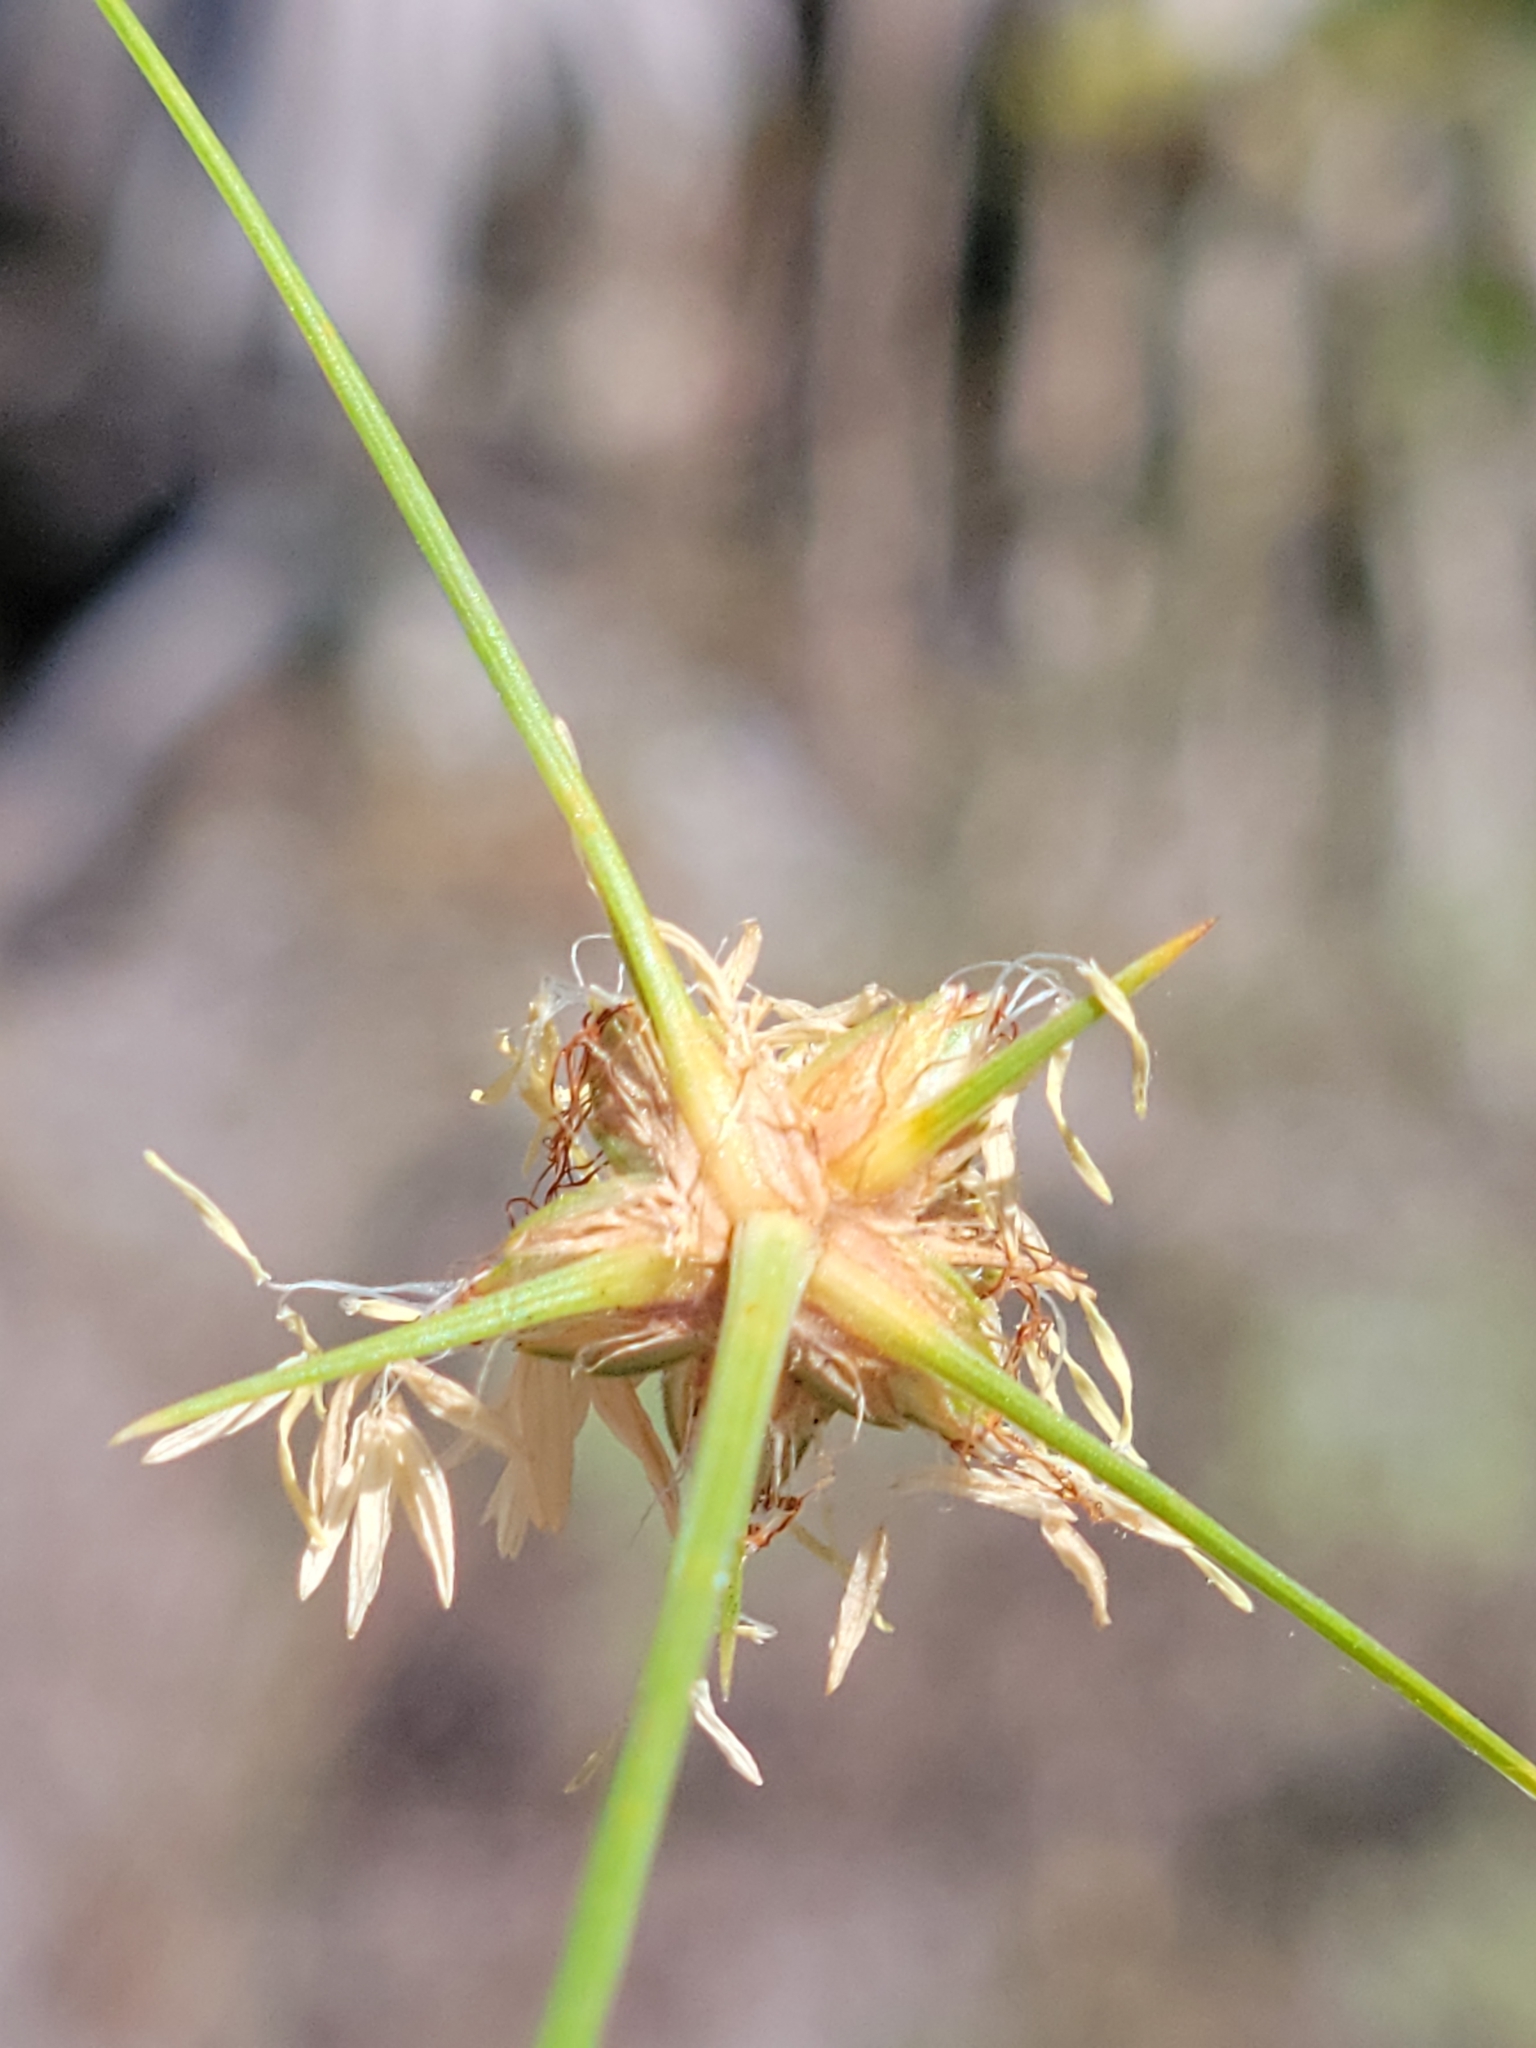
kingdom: Plantae
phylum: Tracheophyta
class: Liliopsida
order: Poales
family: Cyperaceae
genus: Bulbostylis
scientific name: Bulbostylis warei
